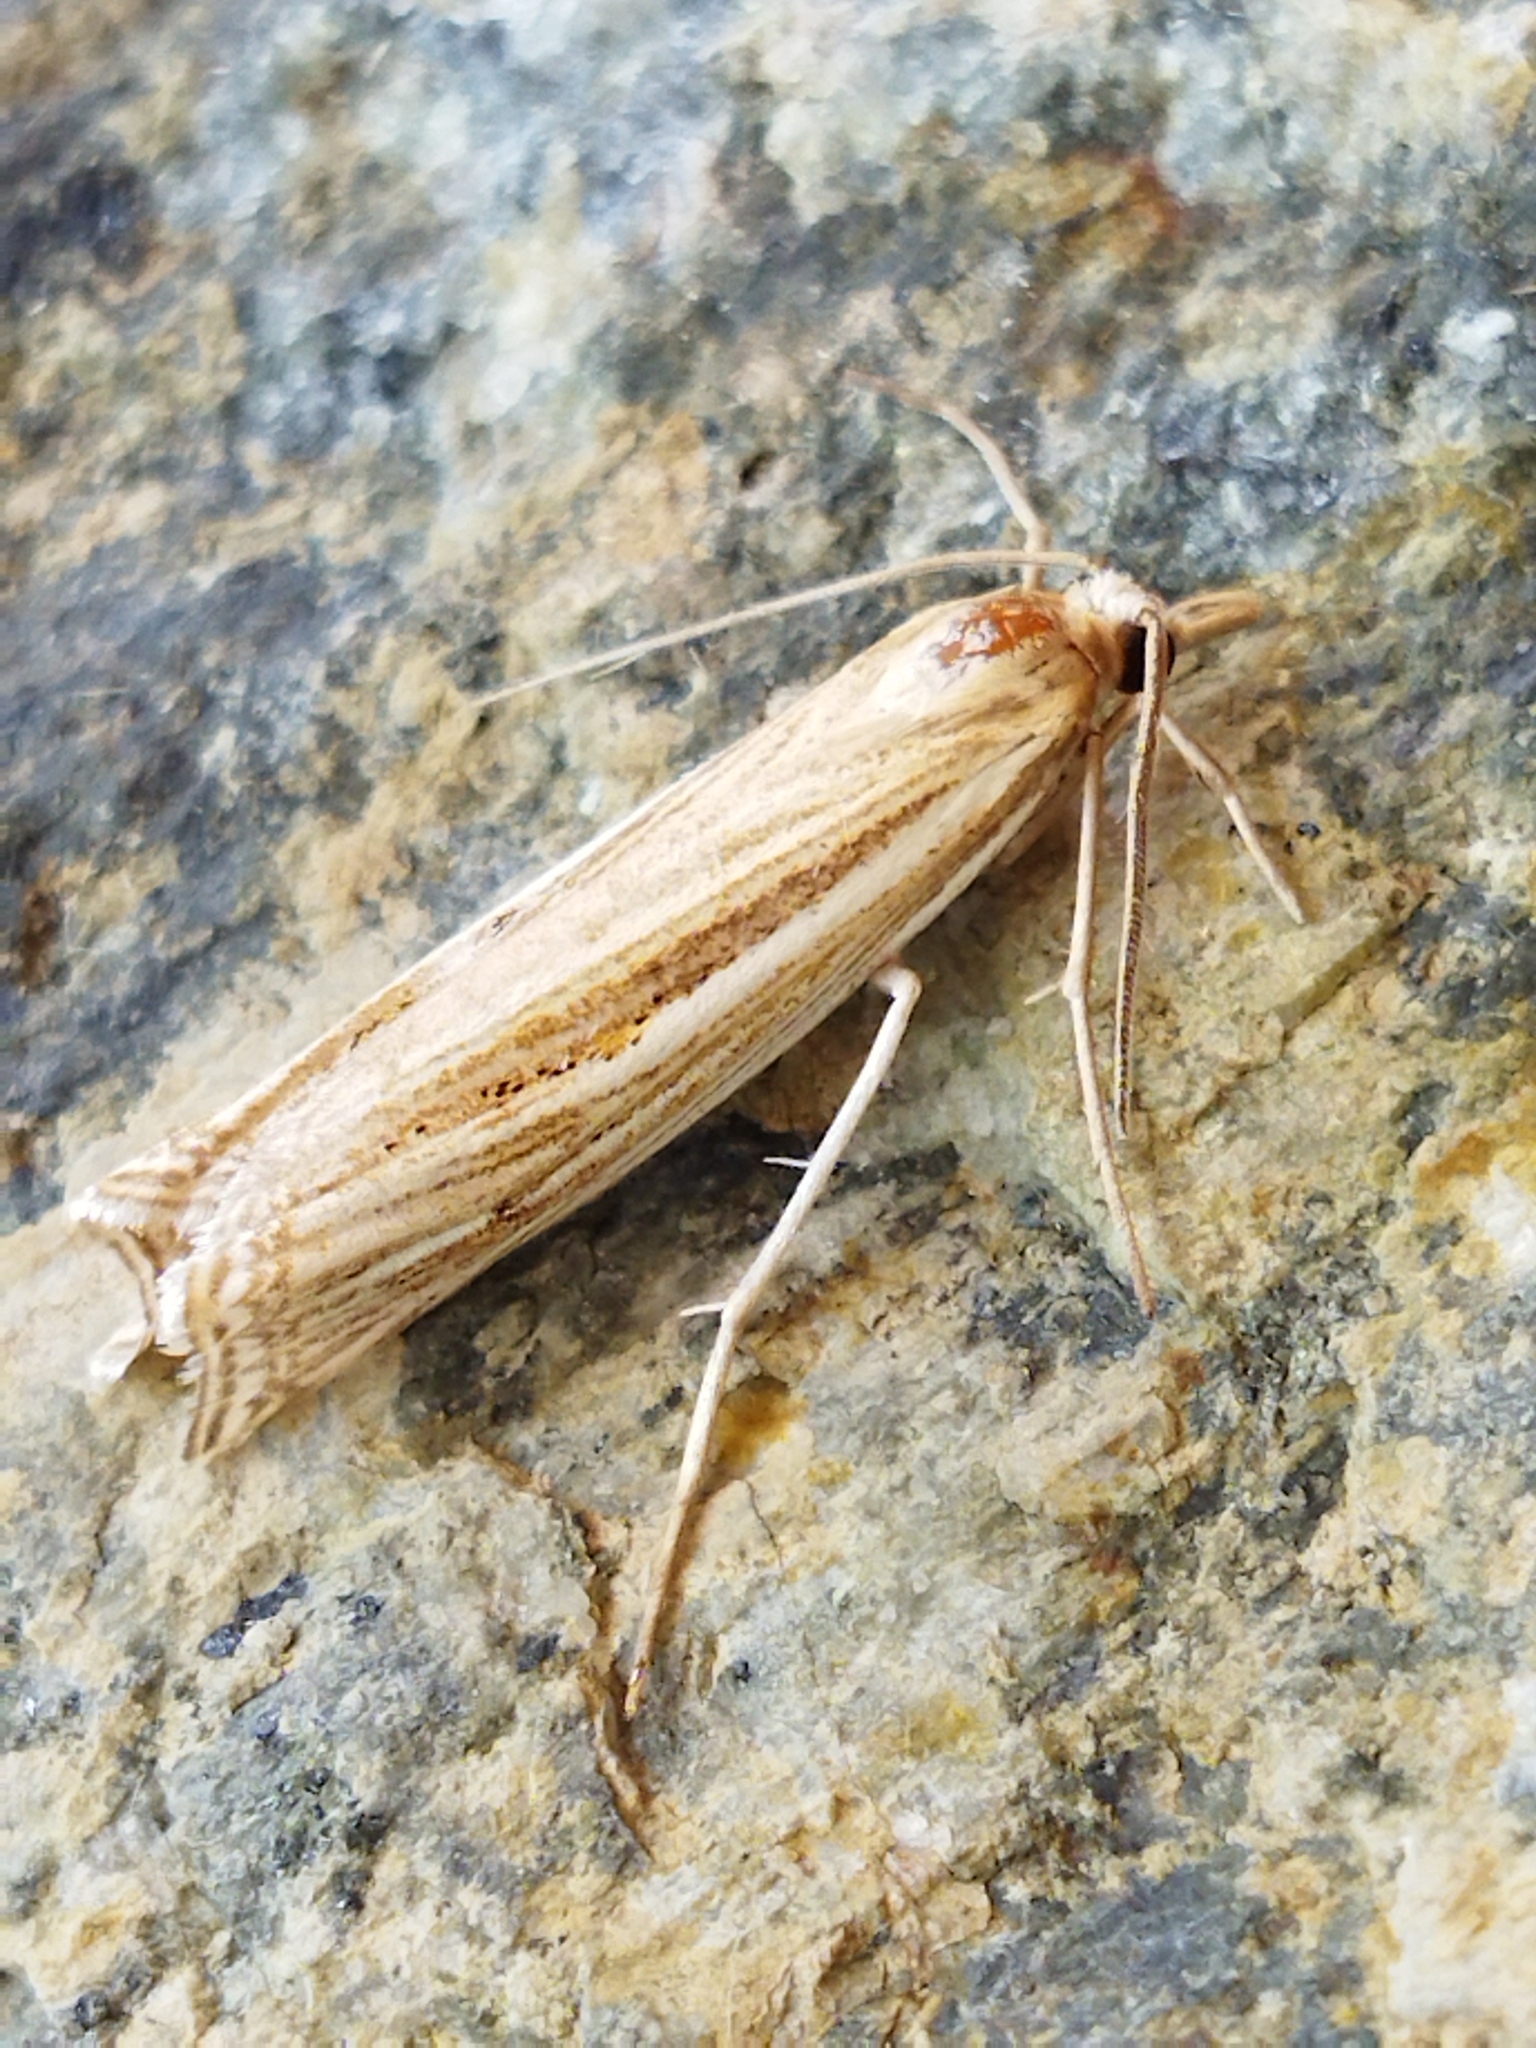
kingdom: Animalia
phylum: Arthropoda
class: Insecta
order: Lepidoptera
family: Crambidae
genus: Ancylolomia
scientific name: Ancylolomia
